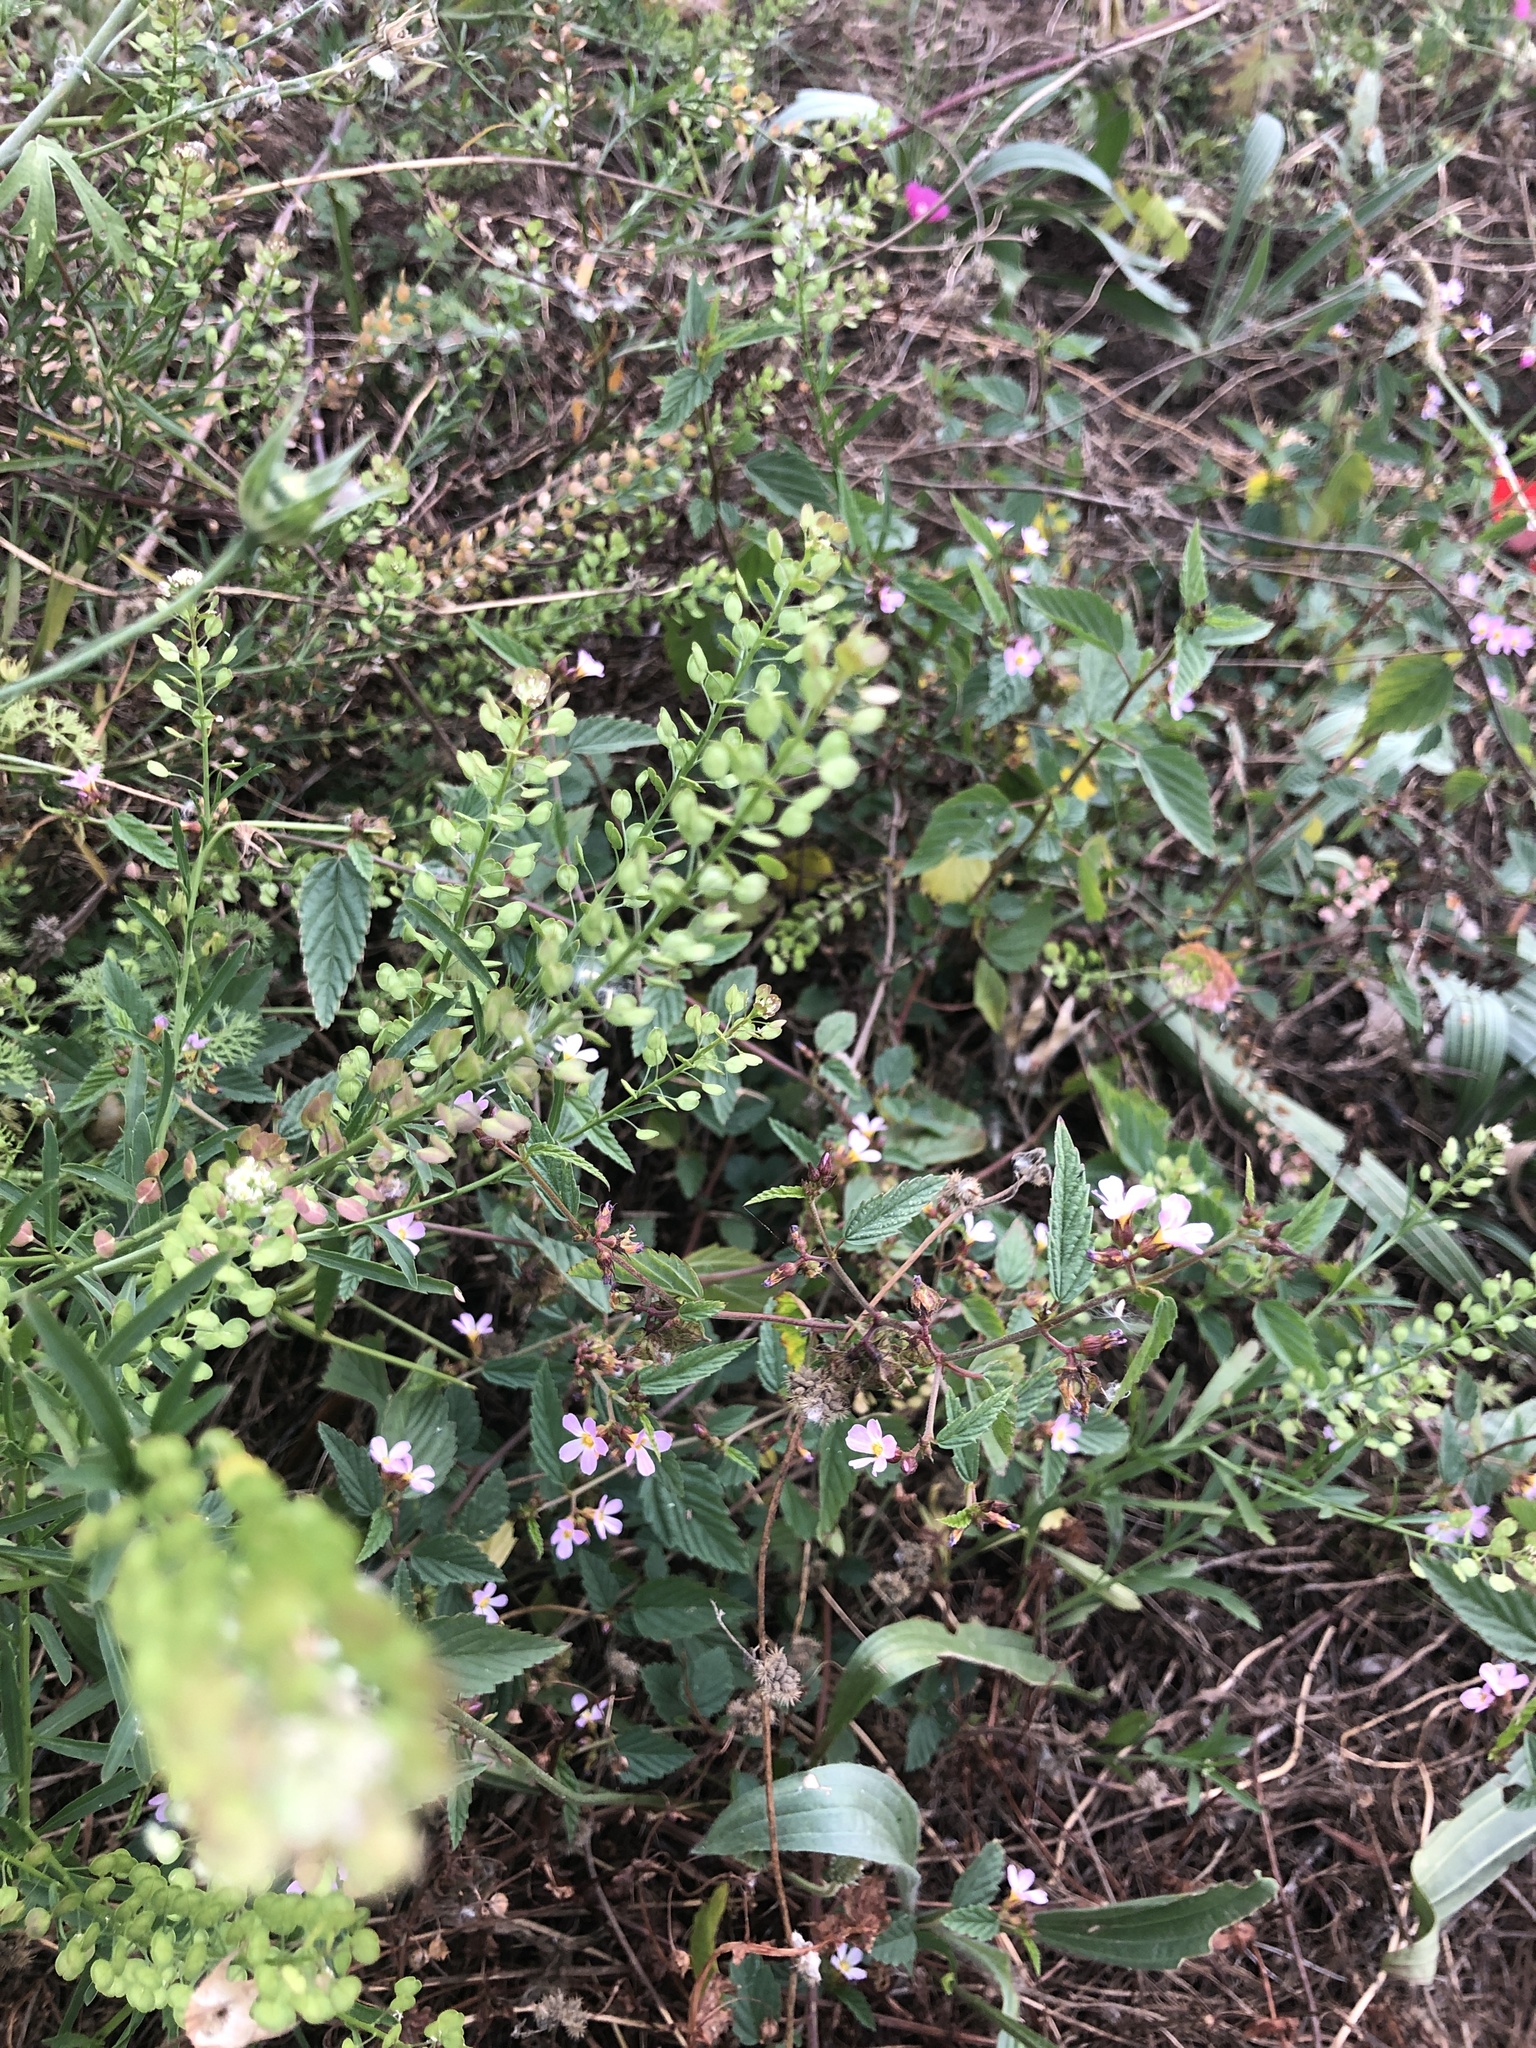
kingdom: Plantae
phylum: Tracheophyta
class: Magnoliopsida
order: Brassicales
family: Brassicaceae
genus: Lepidium
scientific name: Lepidium virginicum
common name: Least pepperwort
